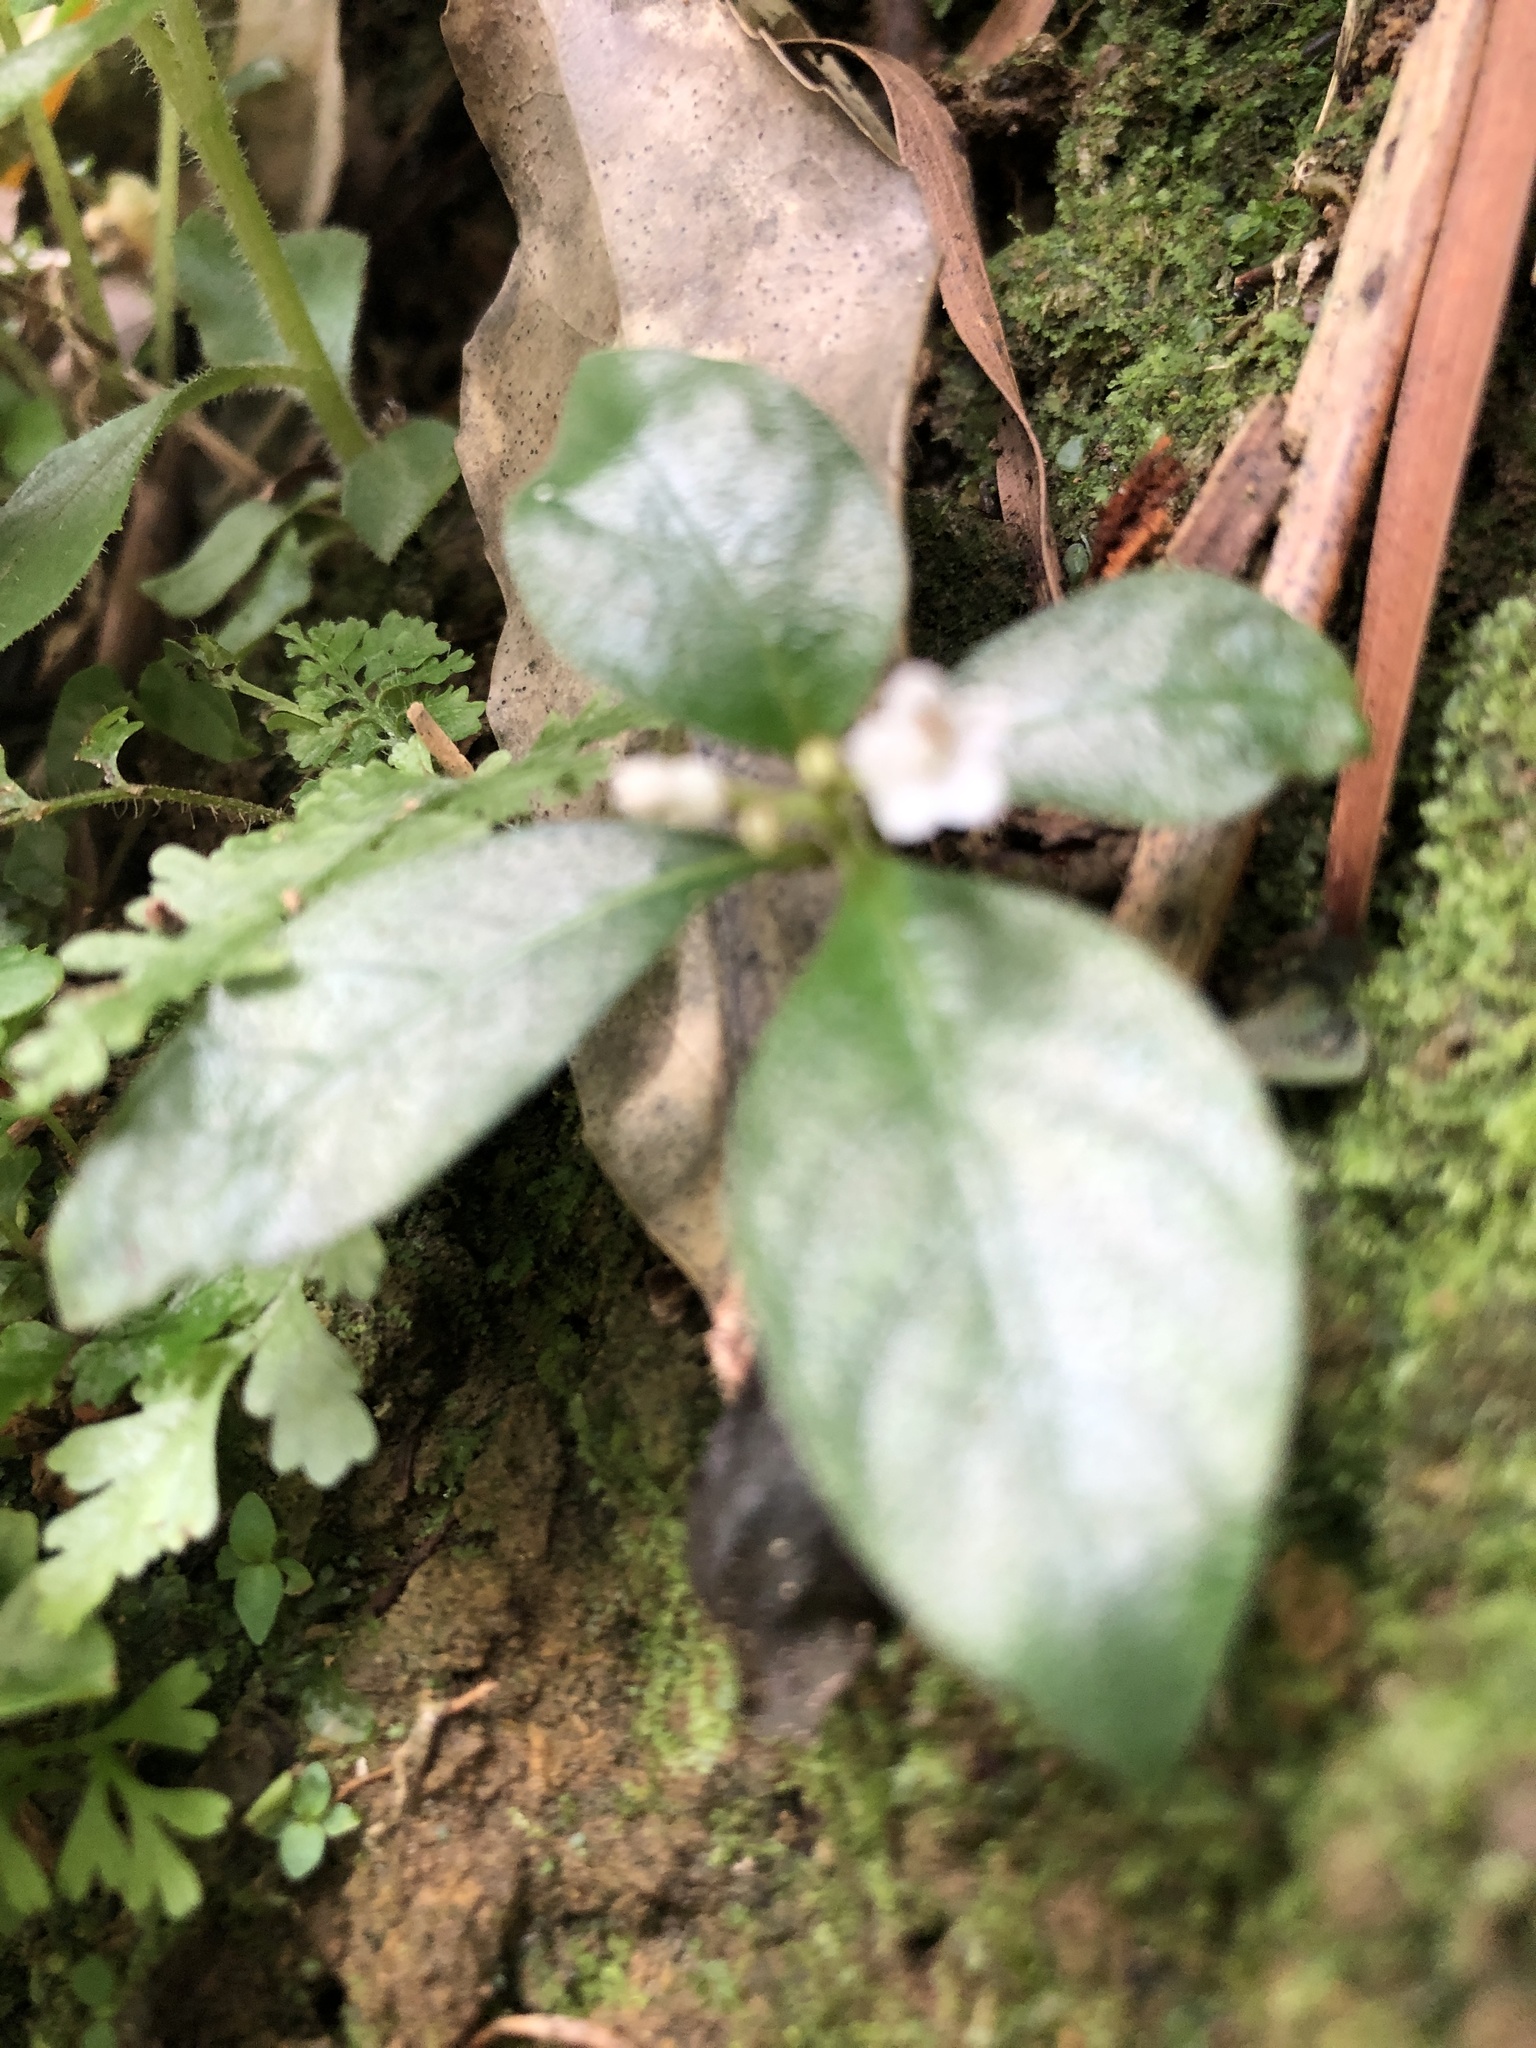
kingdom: Plantae
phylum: Tracheophyta
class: Magnoliopsida
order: Gentianales
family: Rubiaceae
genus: Ophiorrhiza
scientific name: Ophiorrhiza pumila
